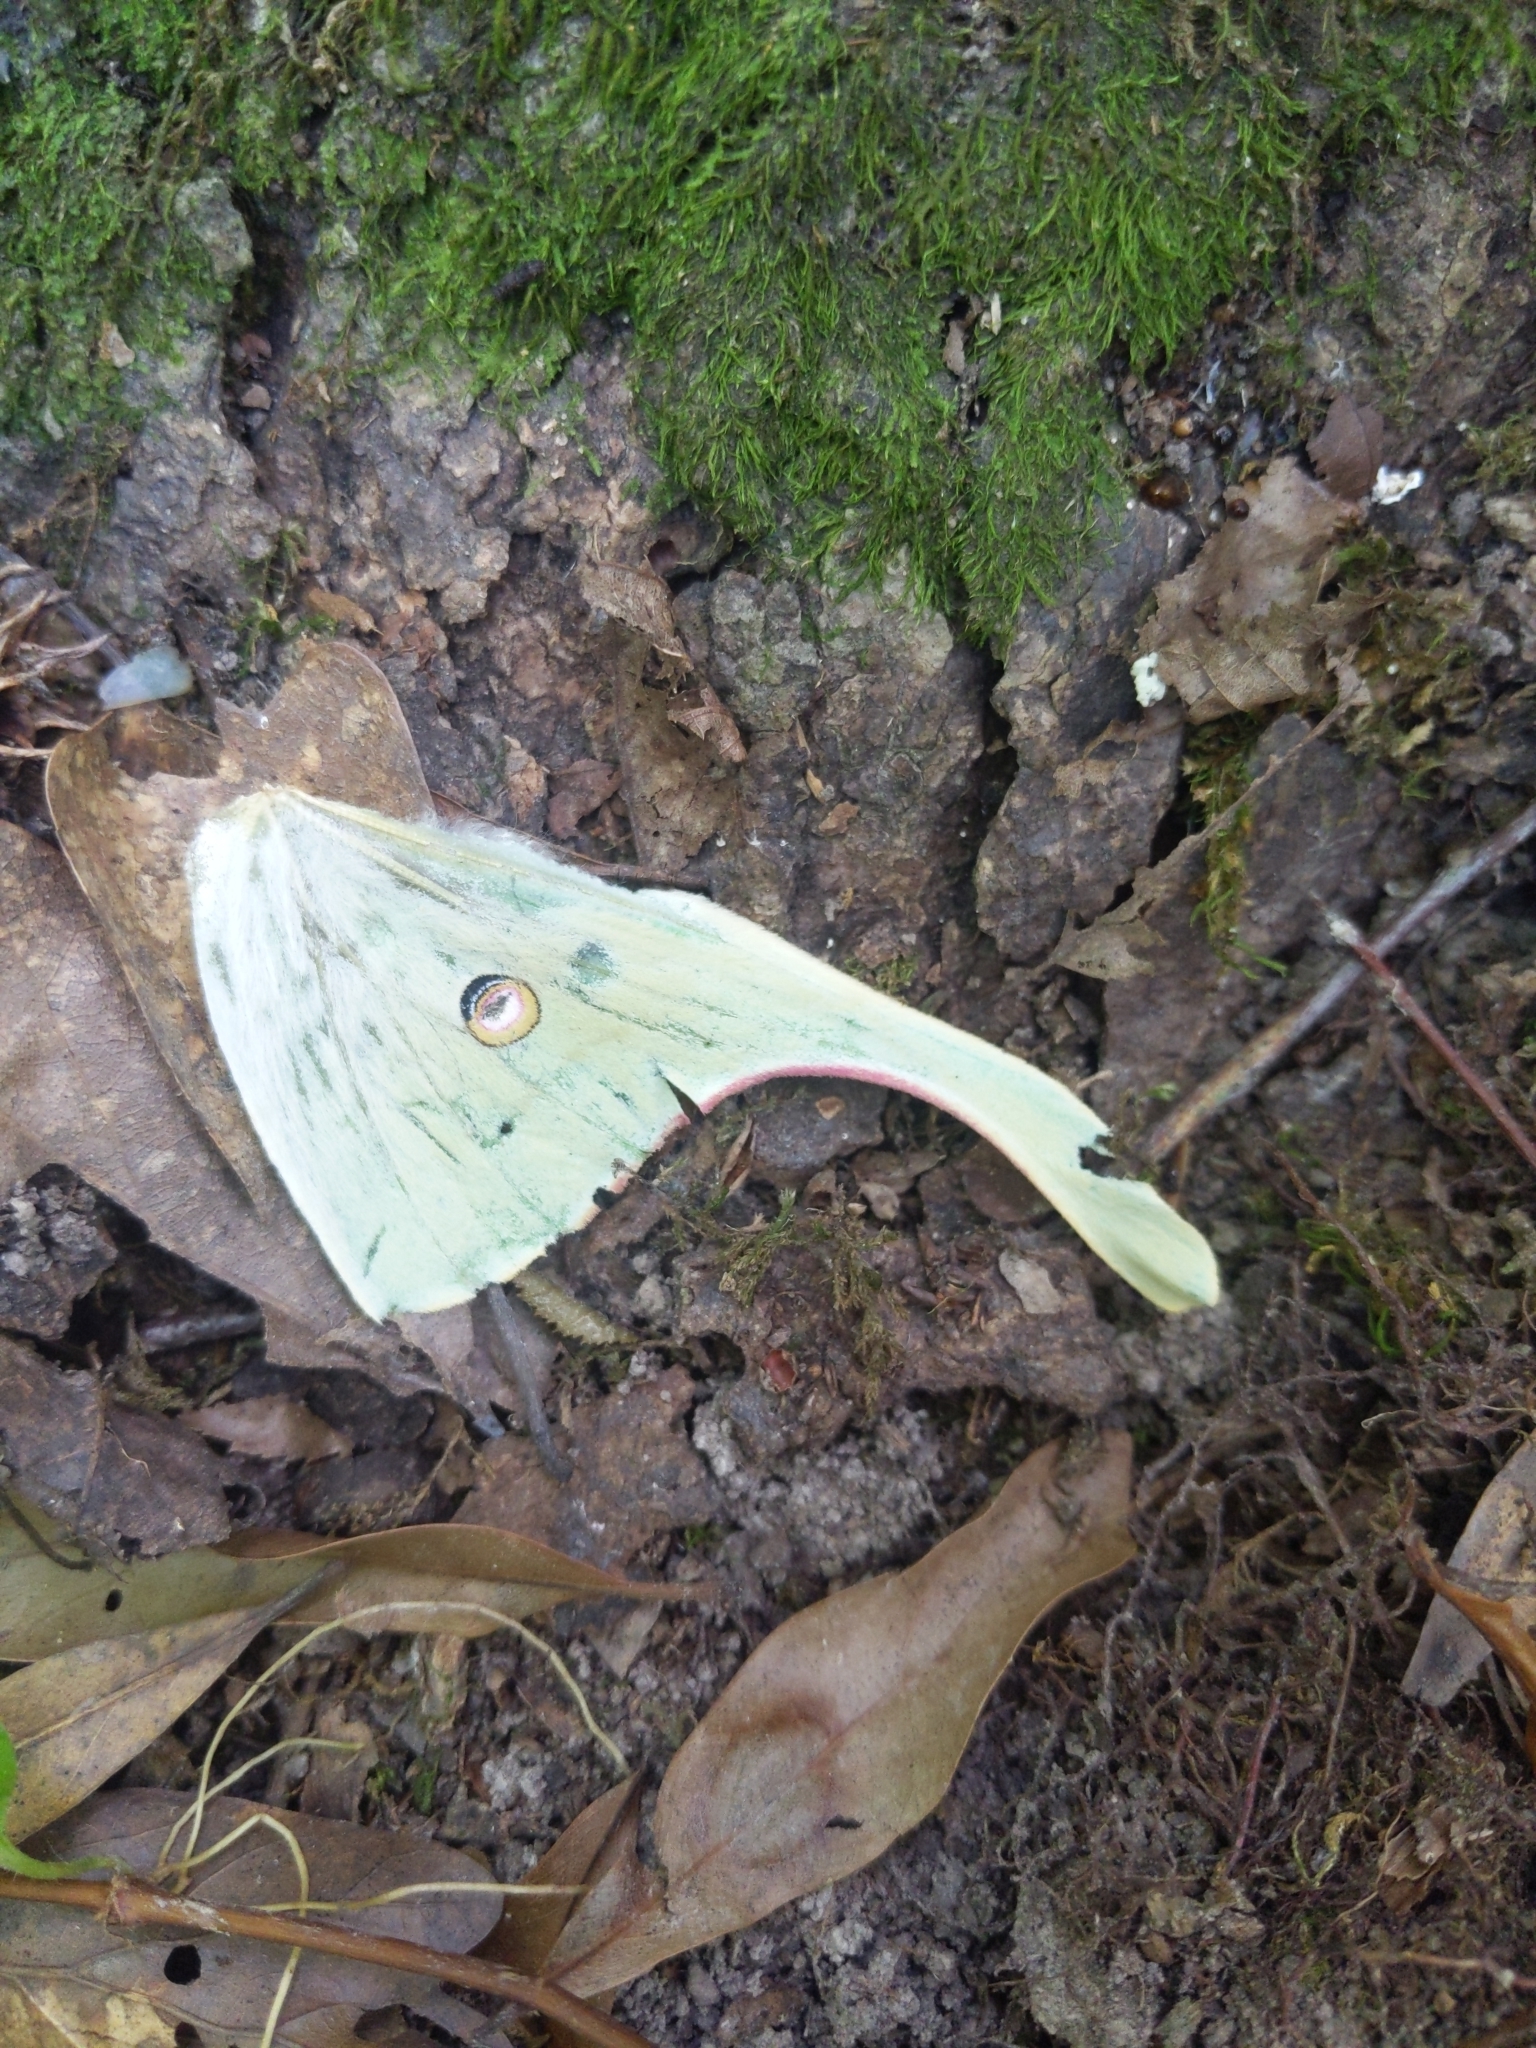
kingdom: Animalia
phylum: Arthropoda
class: Insecta
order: Lepidoptera
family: Saturniidae
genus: Actias
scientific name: Actias luna
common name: Luna moth
